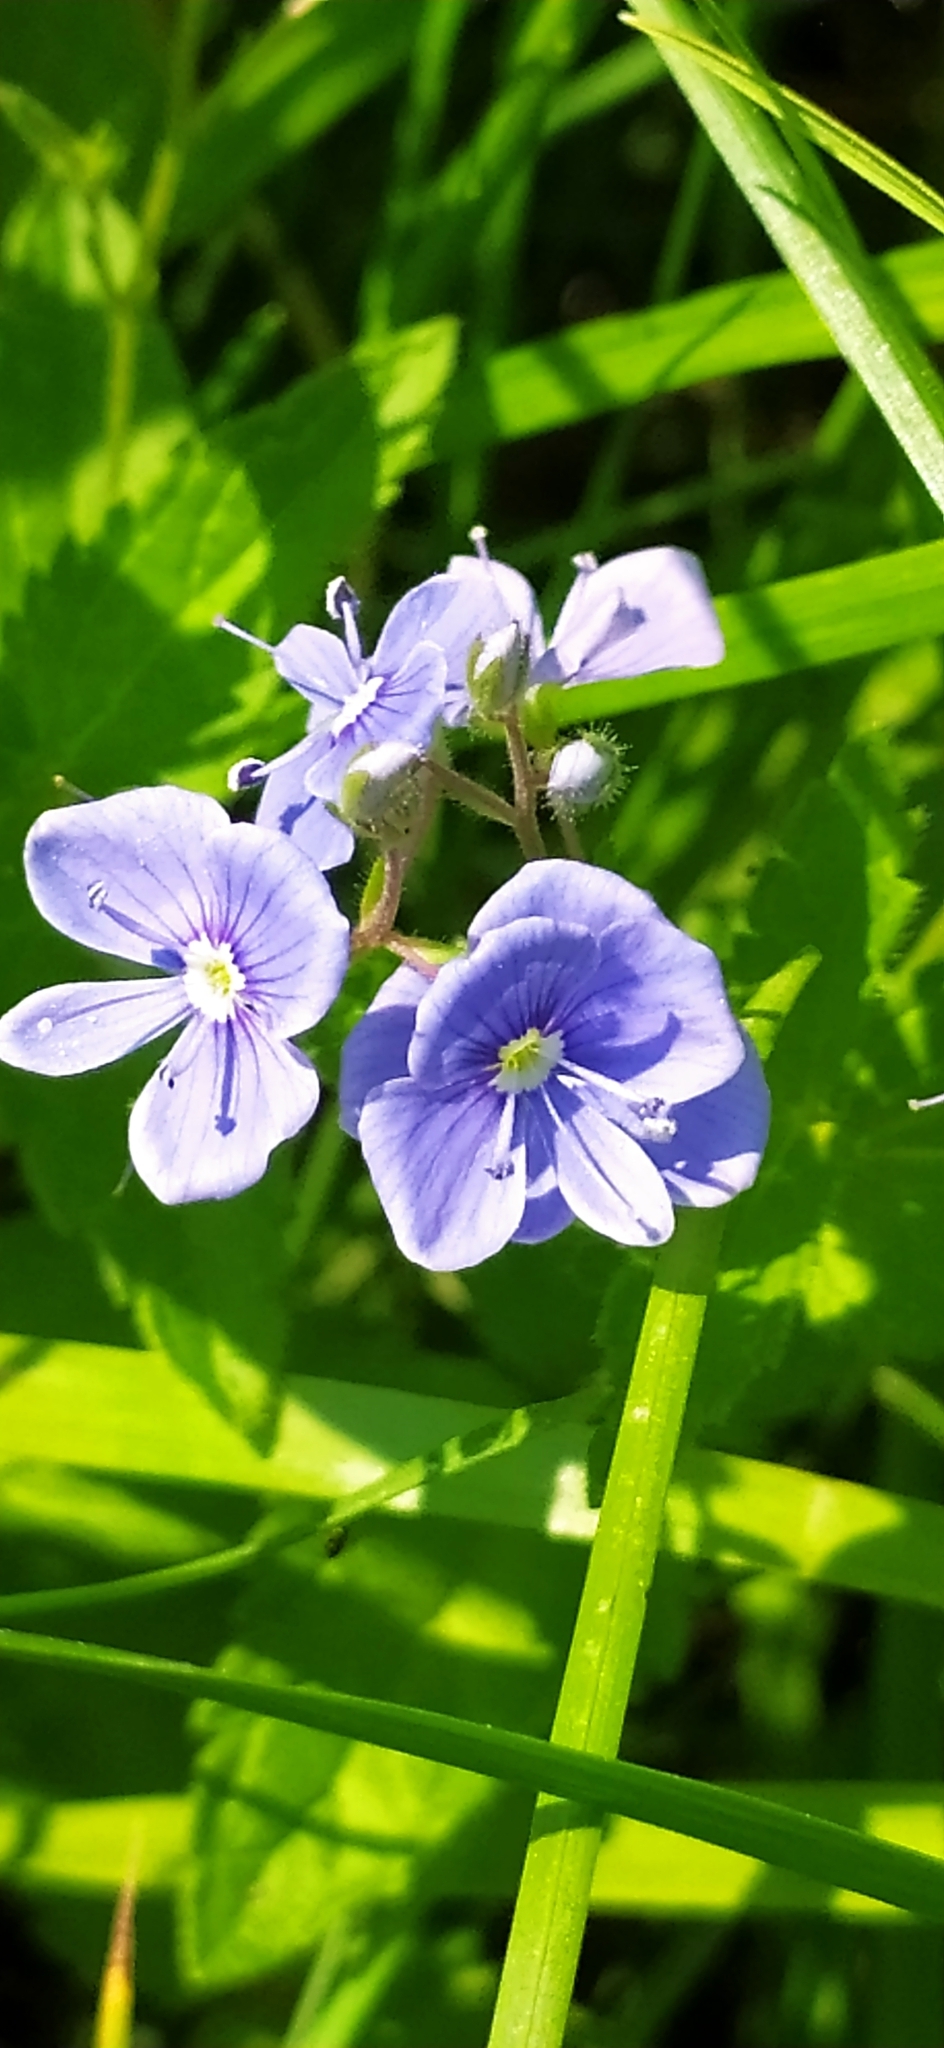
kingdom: Plantae
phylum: Tracheophyta
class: Magnoliopsida
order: Lamiales
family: Plantaginaceae
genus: Veronica
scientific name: Veronica chamaedrys
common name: Germander speedwell
